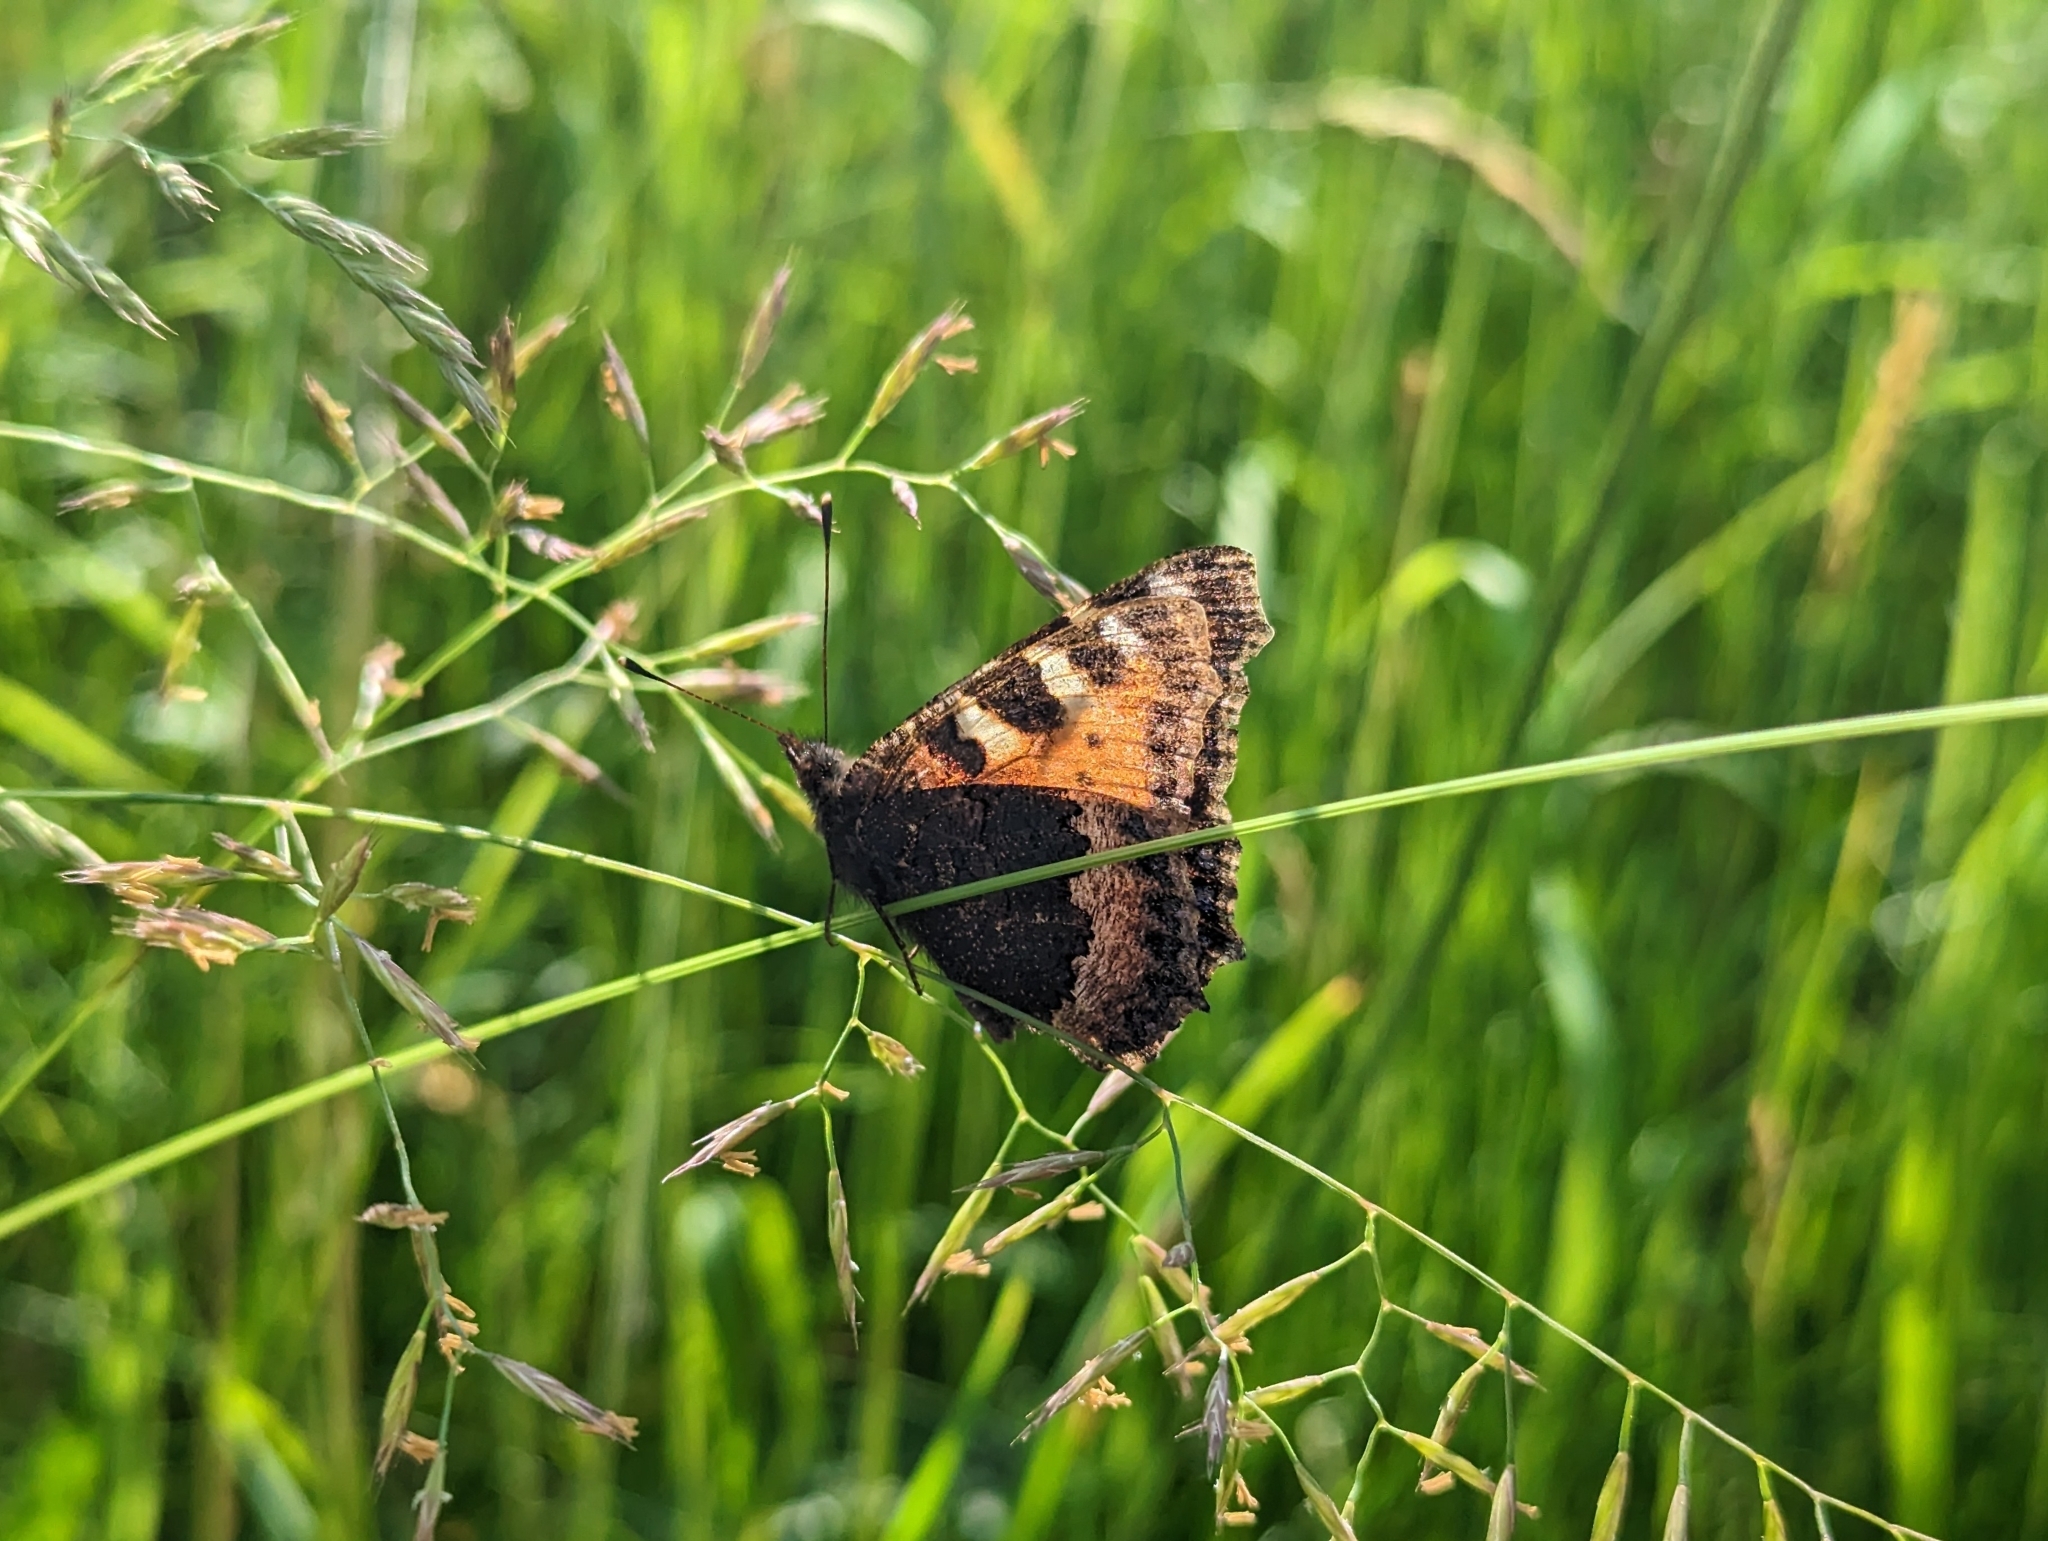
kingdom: Animalia
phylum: Arthropoda
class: Insecta
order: Lepidoptera
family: Nymphalidae
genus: Aglais
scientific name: Aglais urticae
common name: Small tortoiseshell
